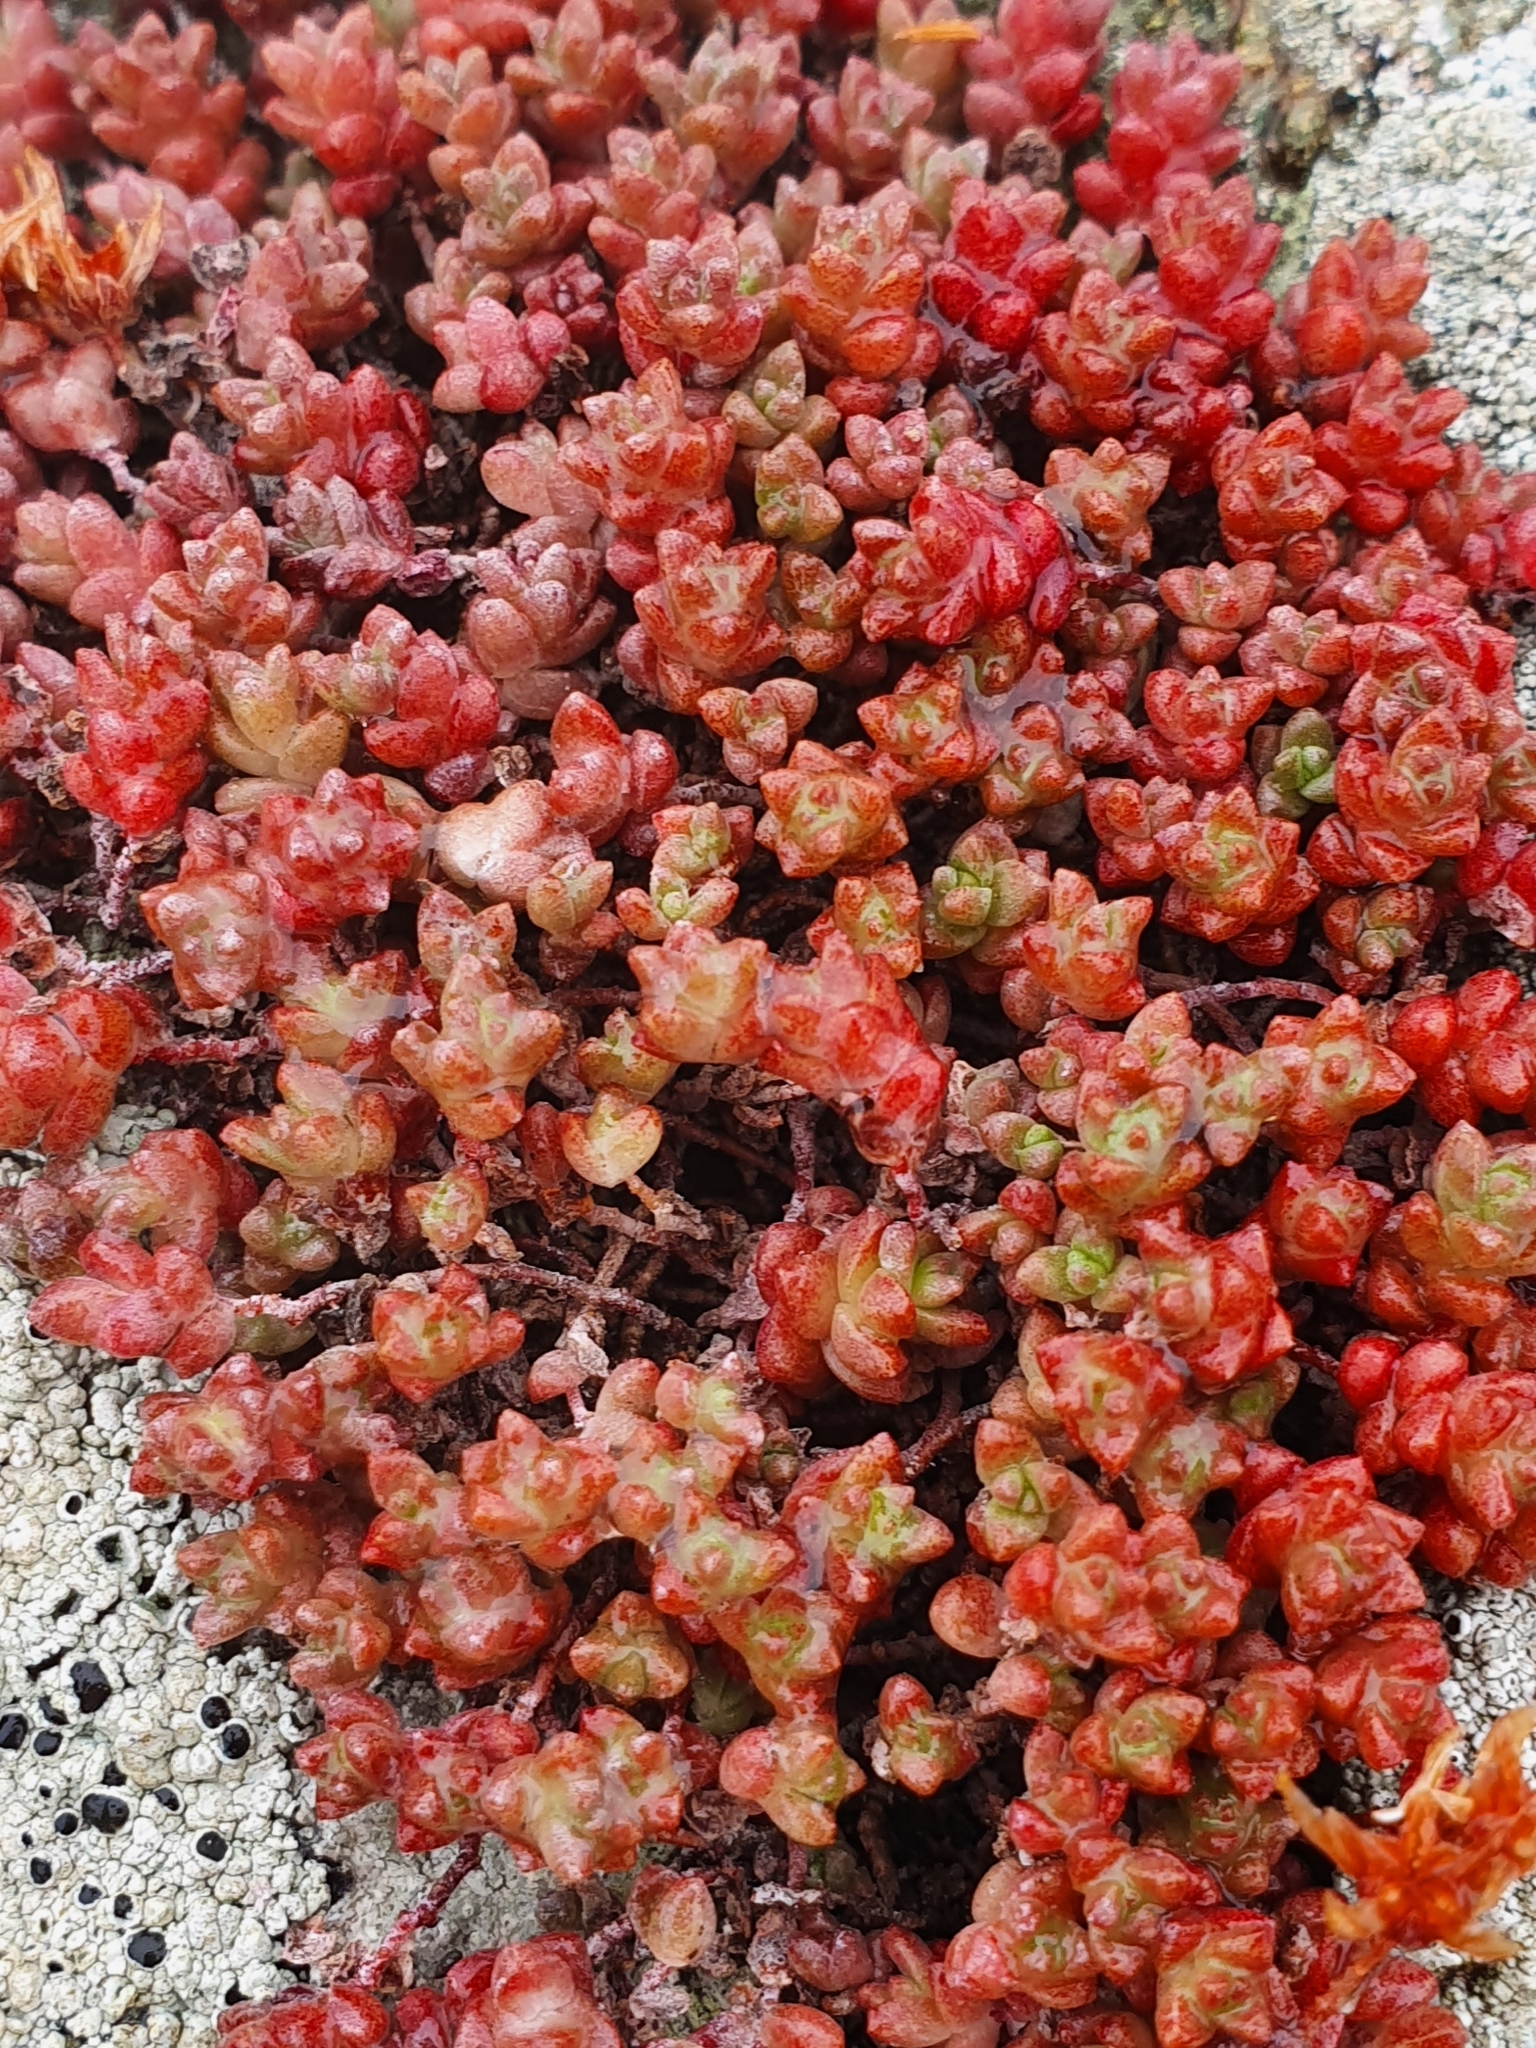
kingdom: Plantae
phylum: Tracheophyta
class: Magnoliopsida
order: Saxifragales
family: Crassulaceae
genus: Sedum
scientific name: Sedum anglicum
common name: English stonecrop
